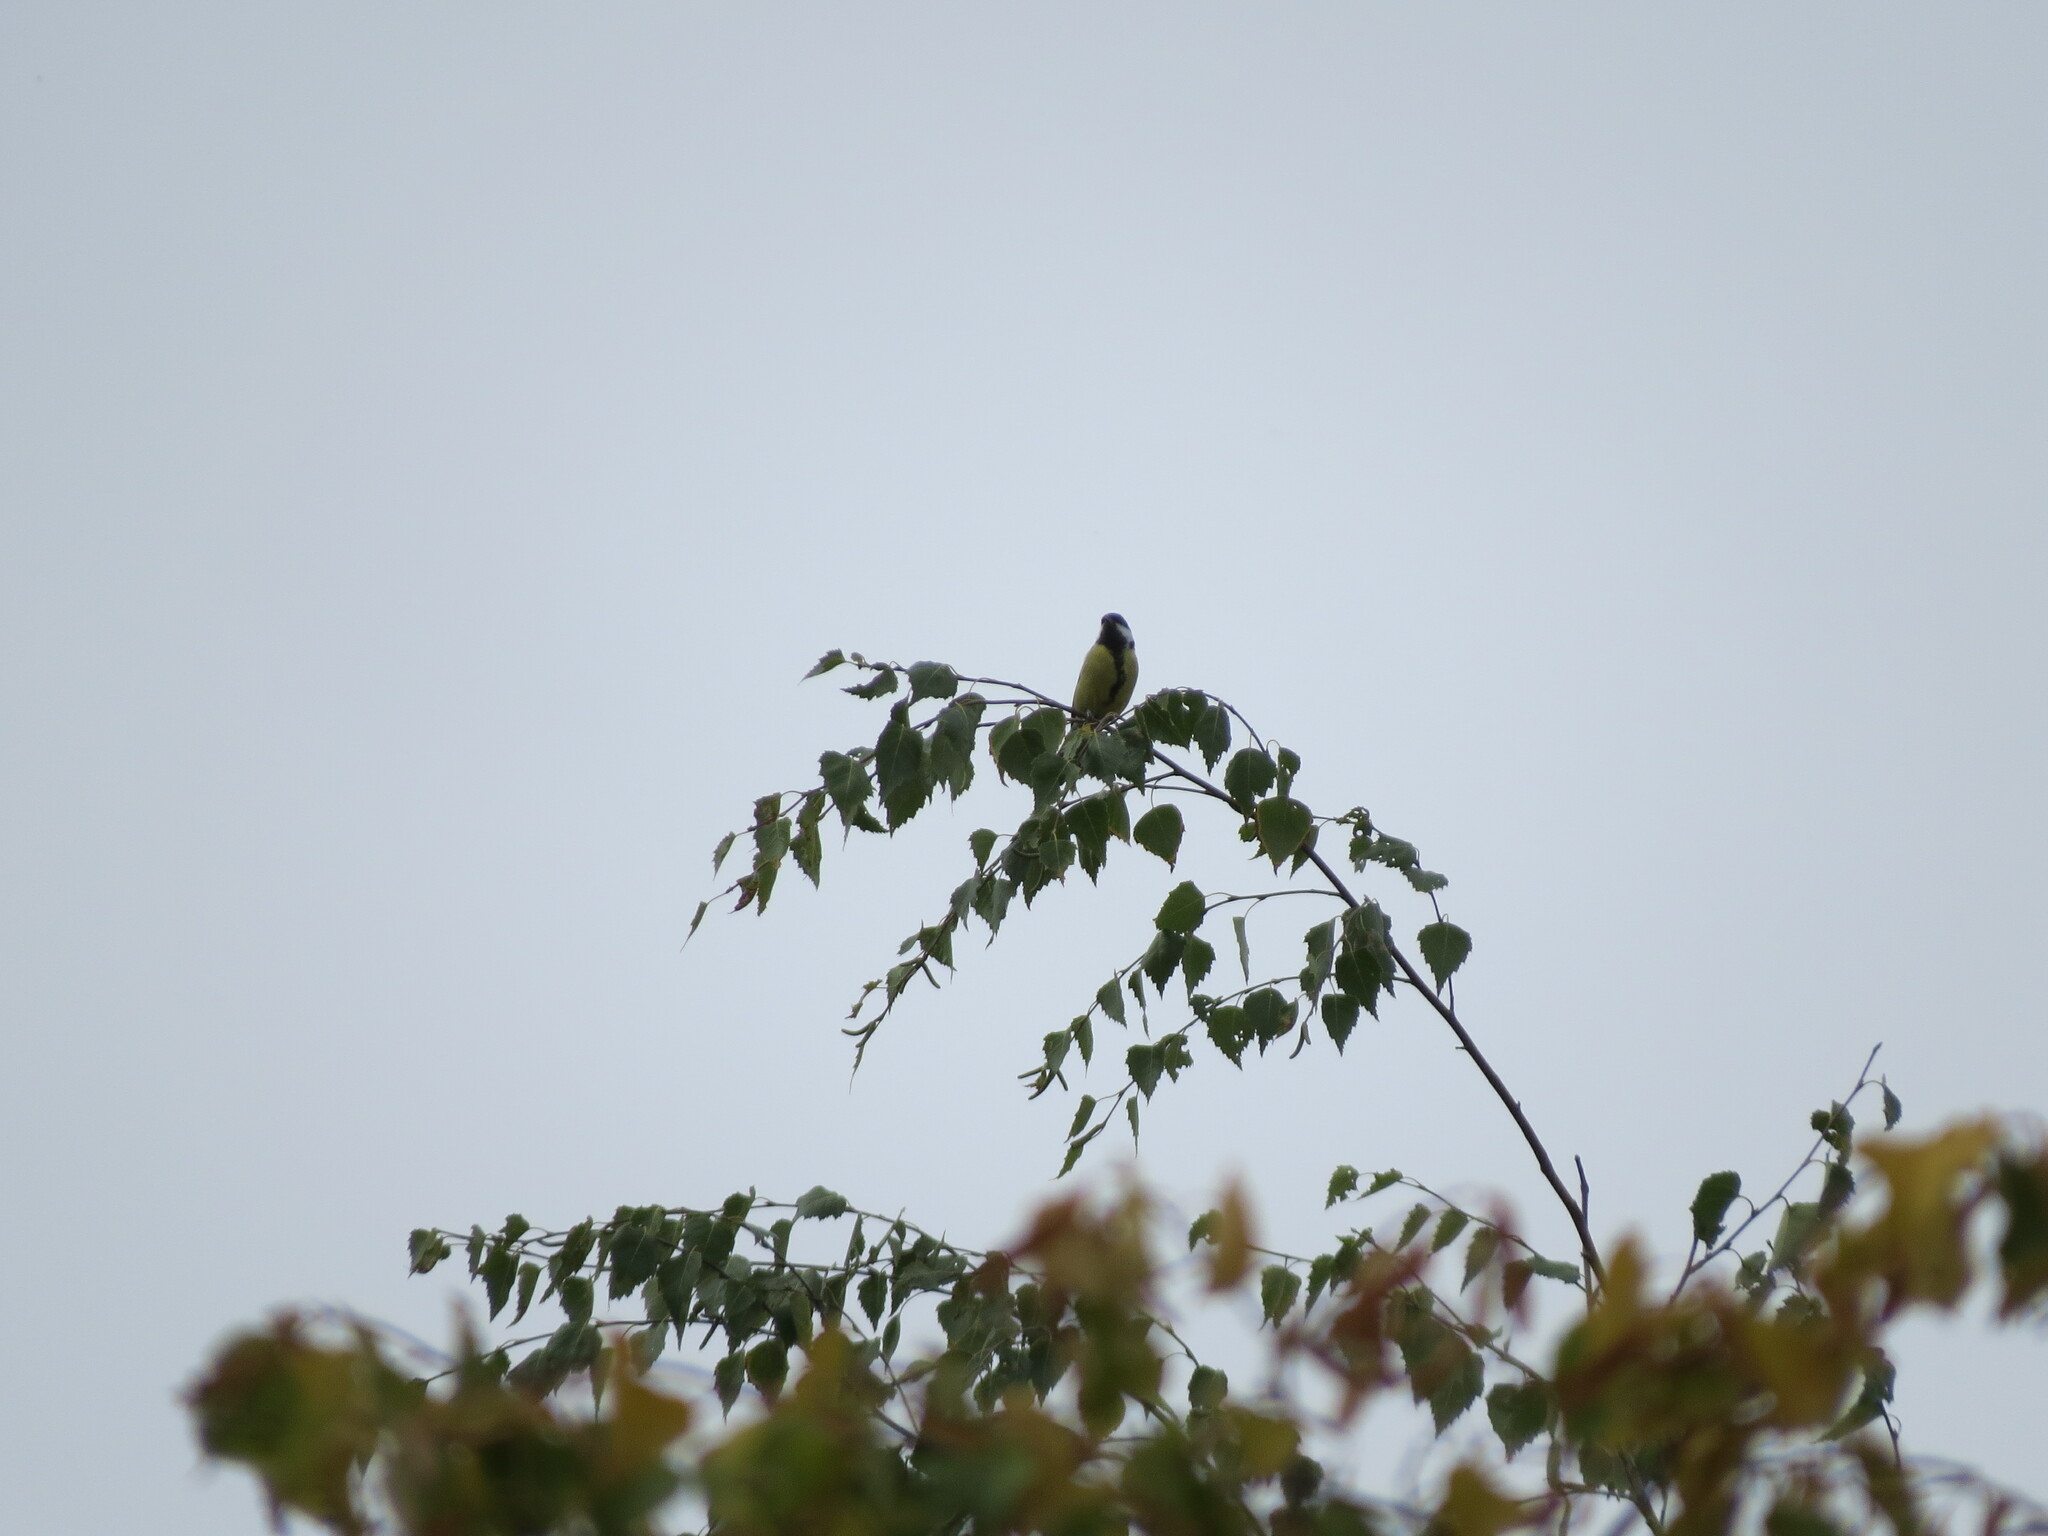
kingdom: Animalia
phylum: Chordata
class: Aves
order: Passeriformes
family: Paridae
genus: Parus
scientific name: Parus major
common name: Great tit
